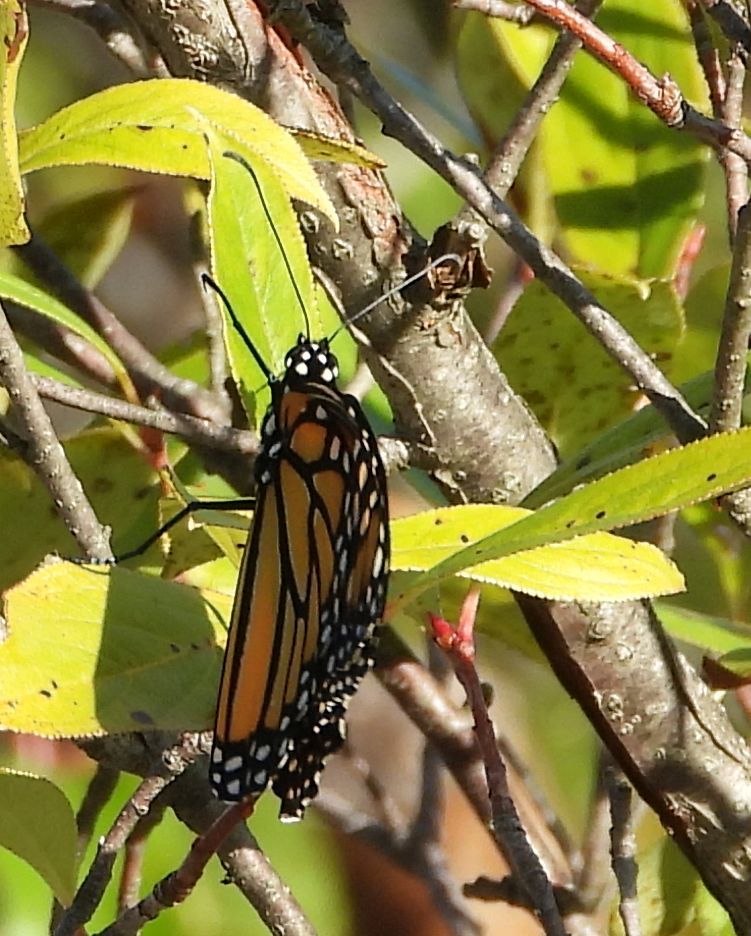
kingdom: Animalia
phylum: Arthropoda
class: Insecta
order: Lepidoptera
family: Nymphalidae
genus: Danaus
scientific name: Danaus plexippus
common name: Monarch
